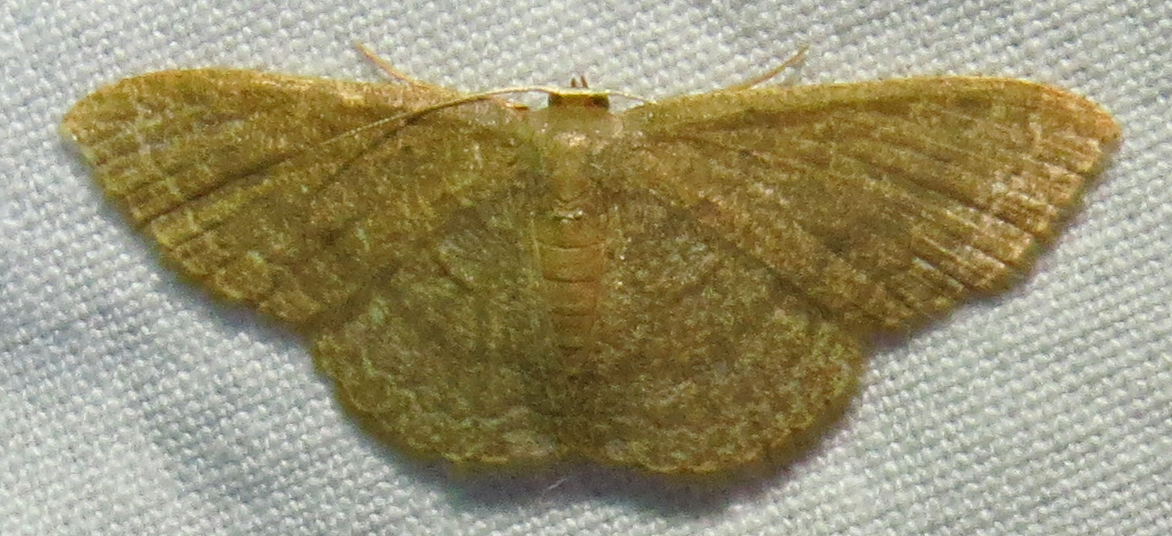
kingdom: Animalia
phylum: Arthropoda
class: Insecta
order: Lepidoptera
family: Geometridae
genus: Pleuroprucha
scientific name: Pleuroprucha insulsaria
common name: Common tan wave
